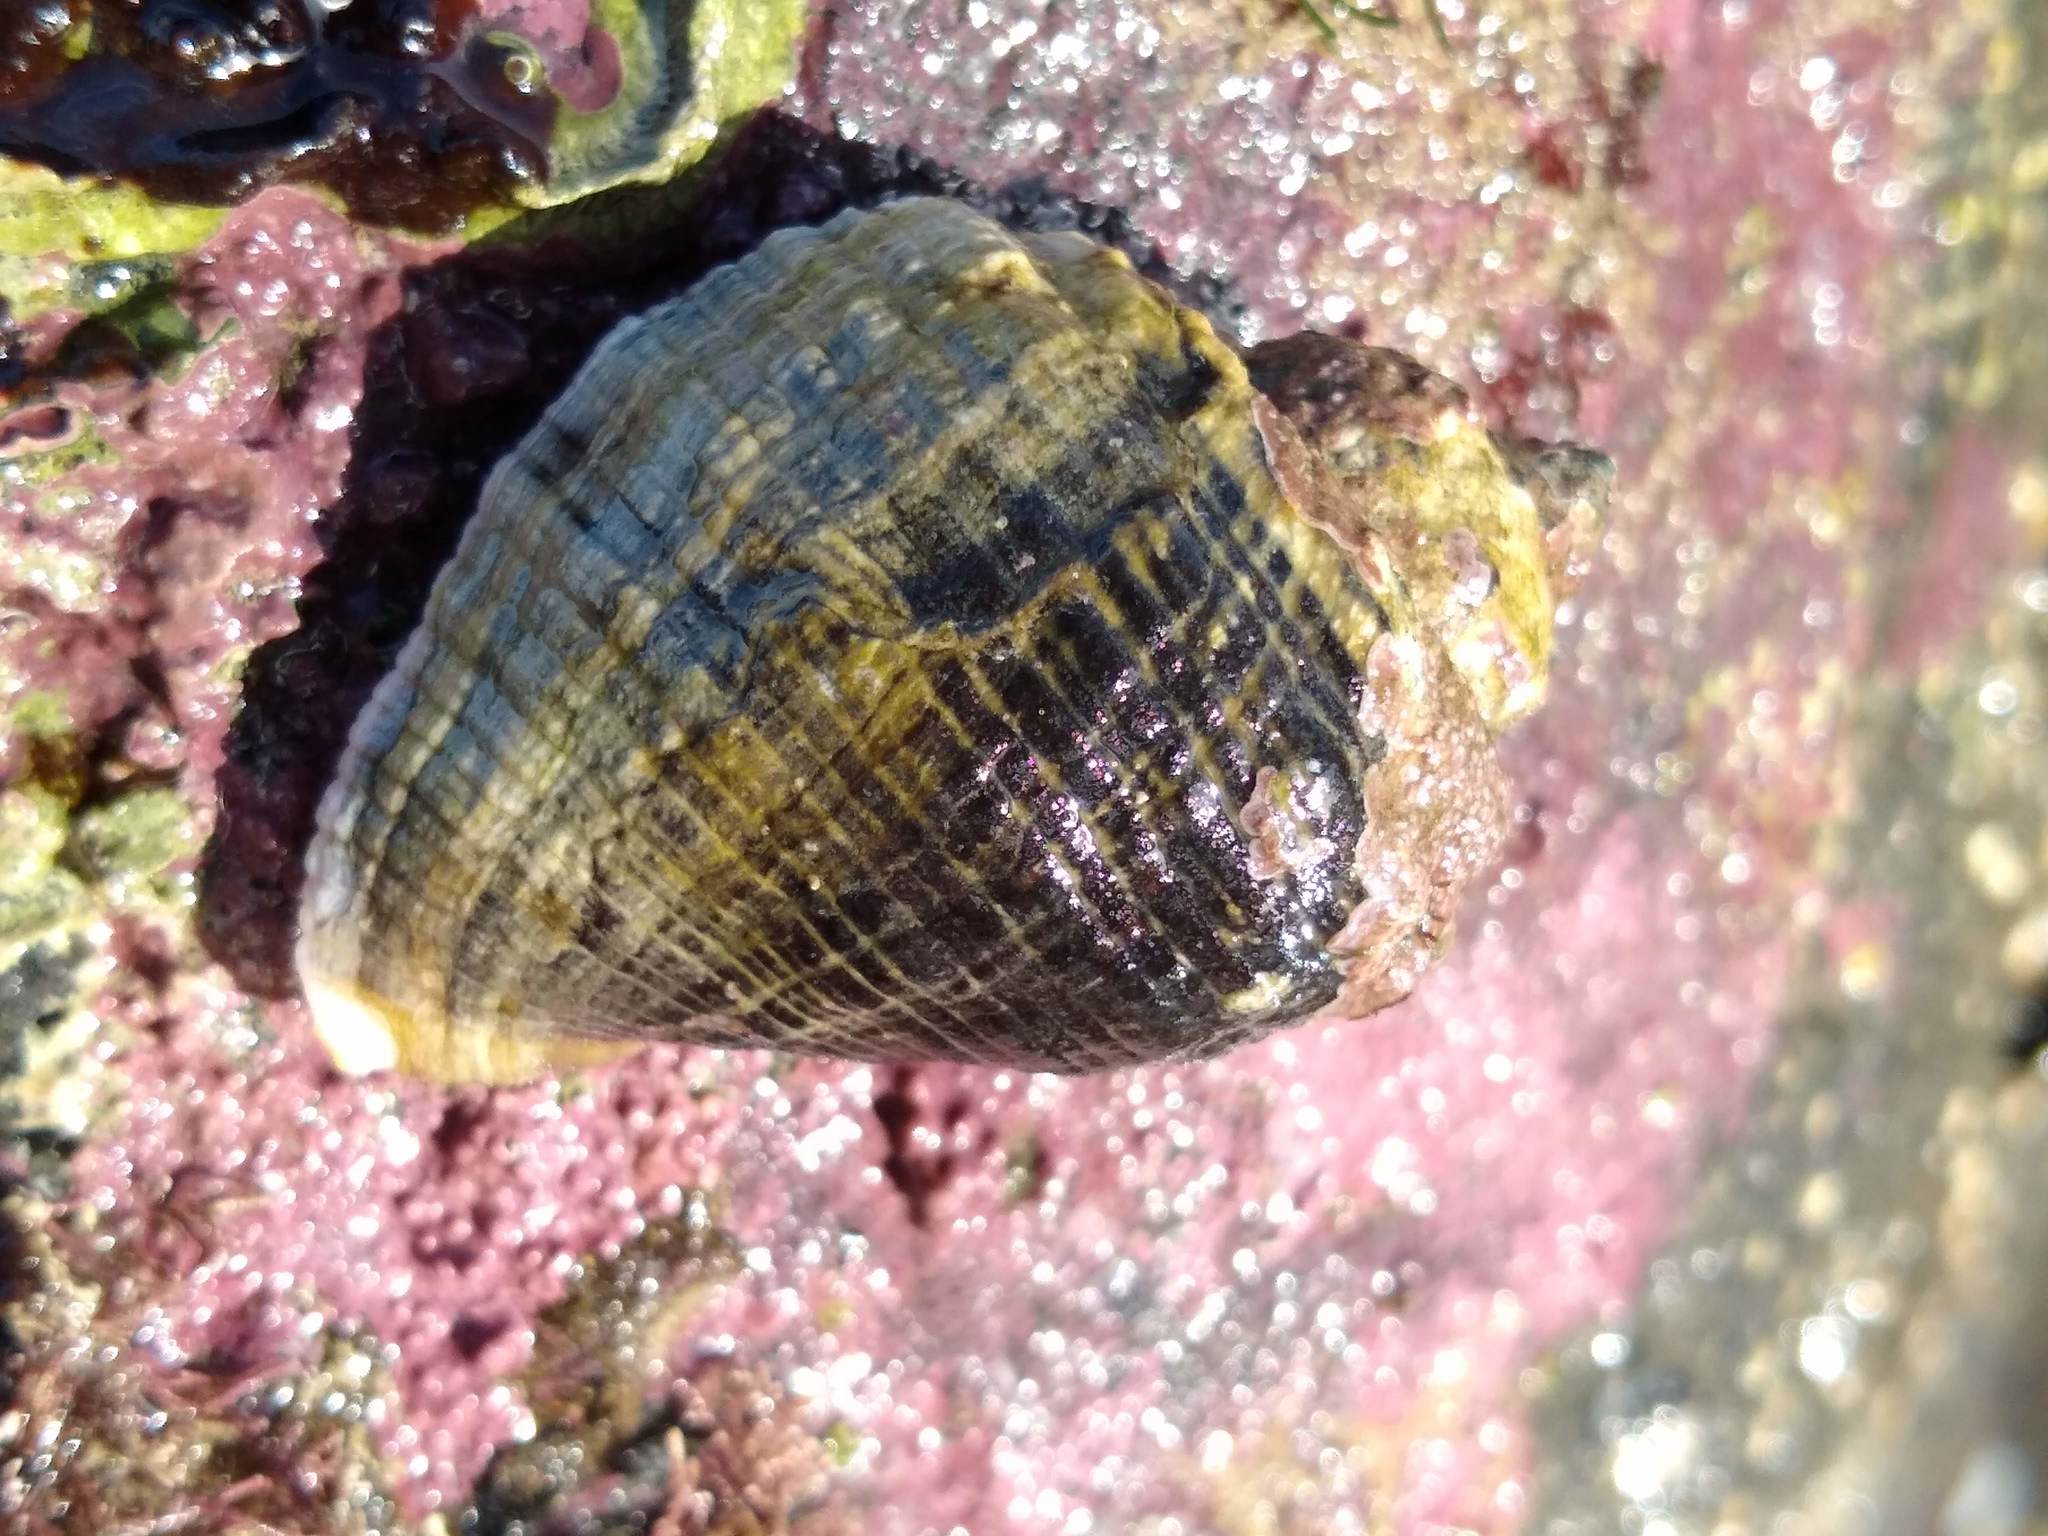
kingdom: Animalia
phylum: Mollusca
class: Gastropoda
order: Neogastropoda
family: Muricidae
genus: Haustrum
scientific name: Haustrum haustorium
